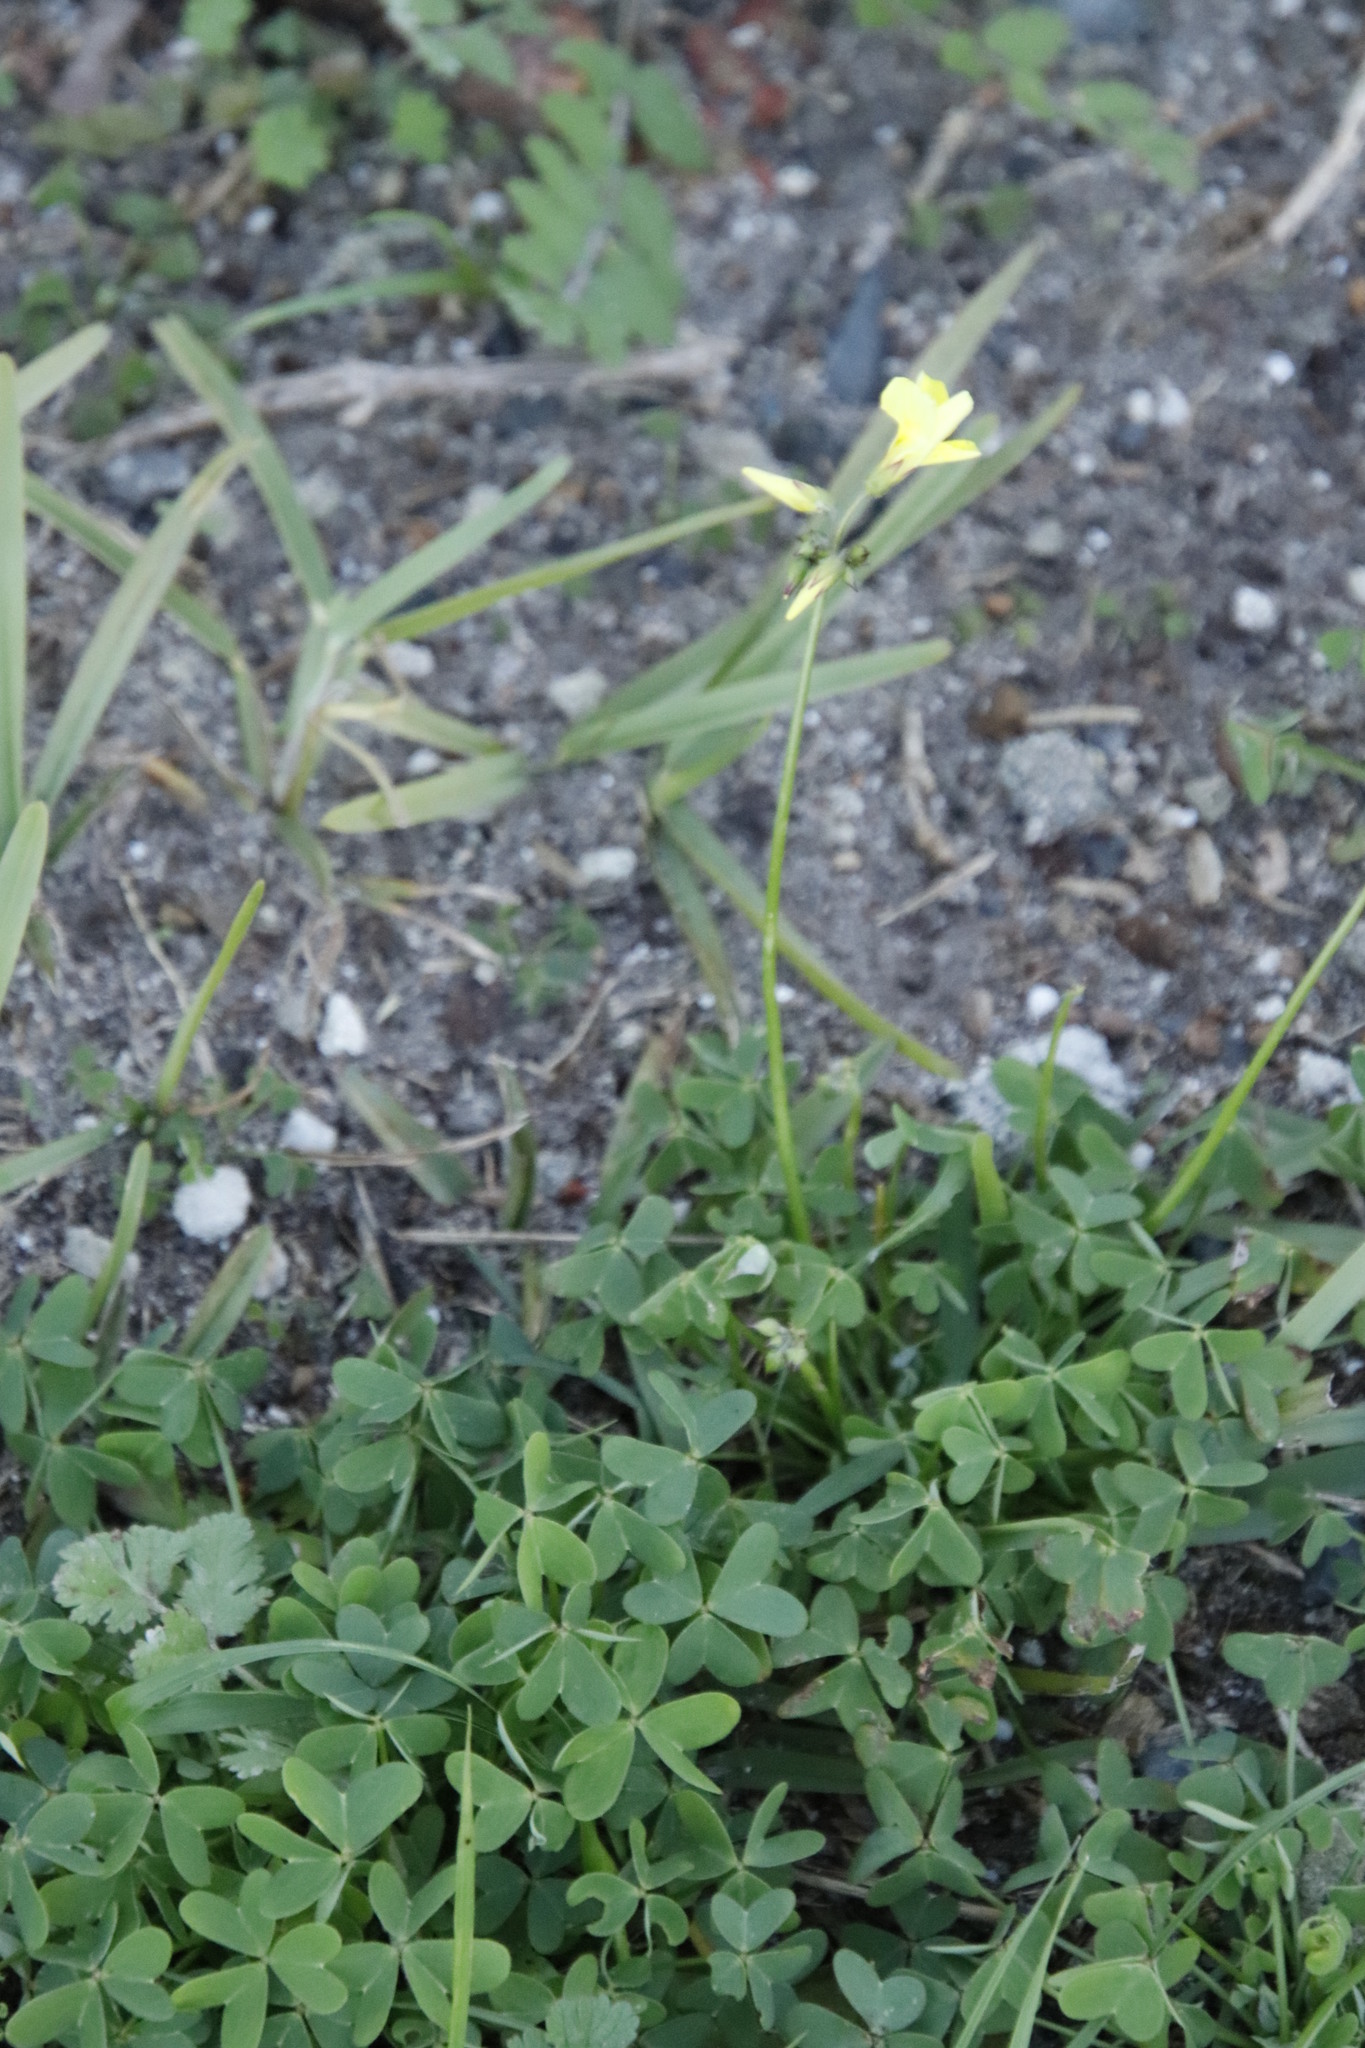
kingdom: Plantae
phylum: Tracheophyta
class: Magnoliopsida
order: Oxalidales
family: Oxalidaceae
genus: Oxalis
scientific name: Oxalis pes-caprae
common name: Bermuda-buttercup
